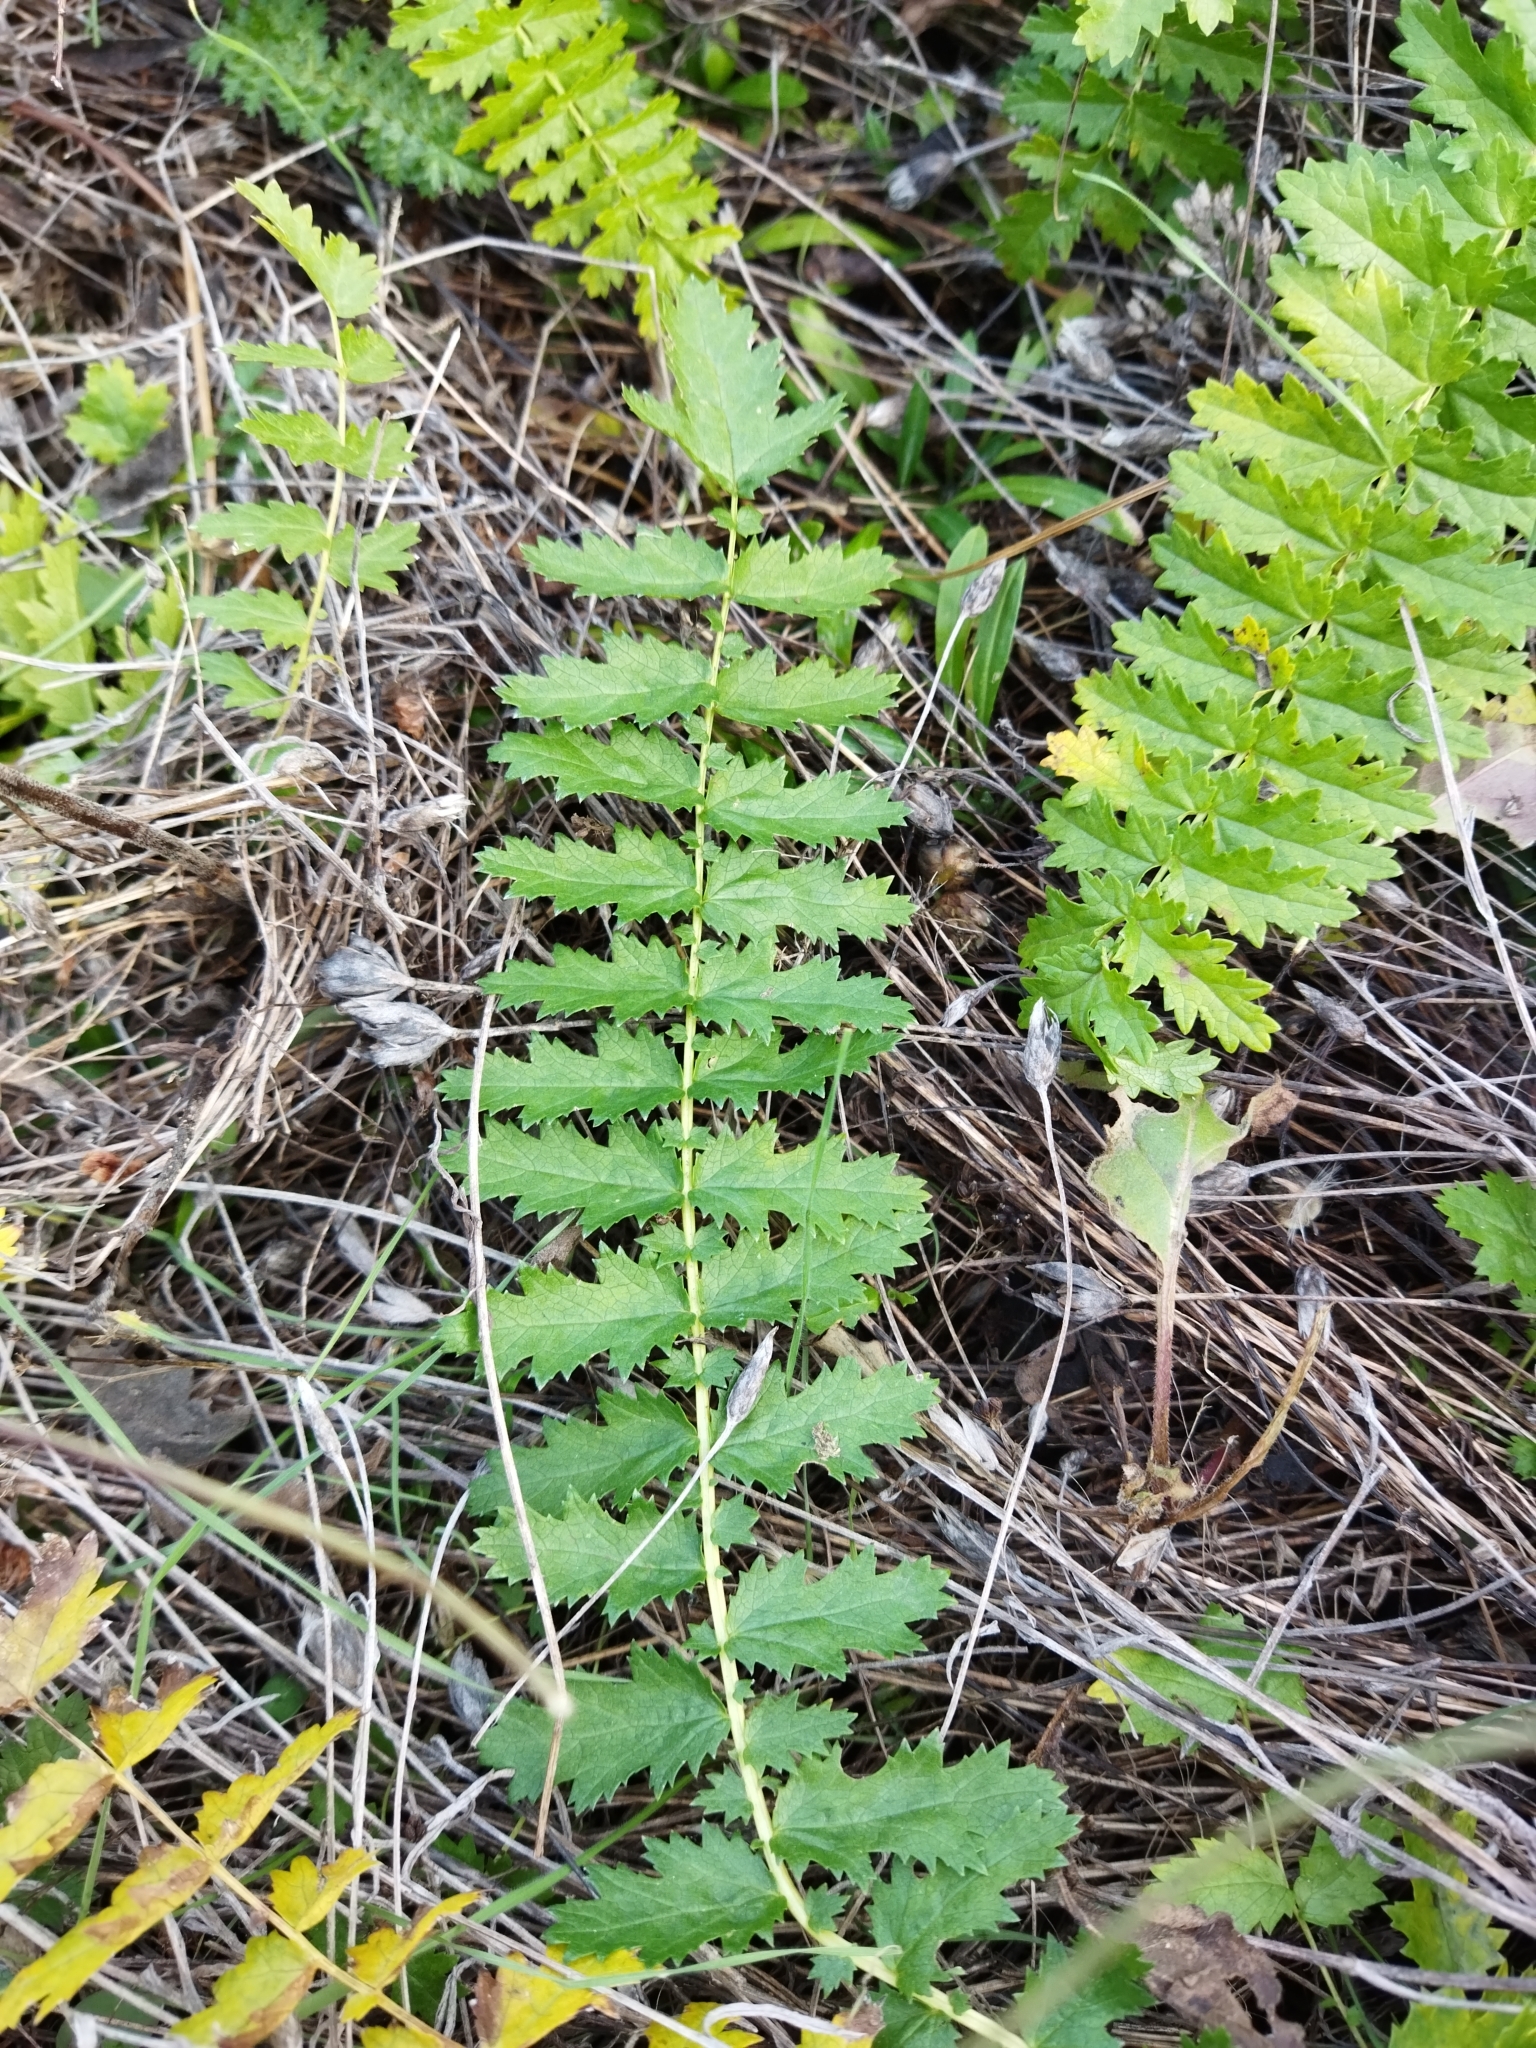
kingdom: Plantae
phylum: Tracheophyta
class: Magnoliopsida
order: Rosales
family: Rosaceae
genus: Filipendula
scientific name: Filipendula vulgaris
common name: Dropwort
